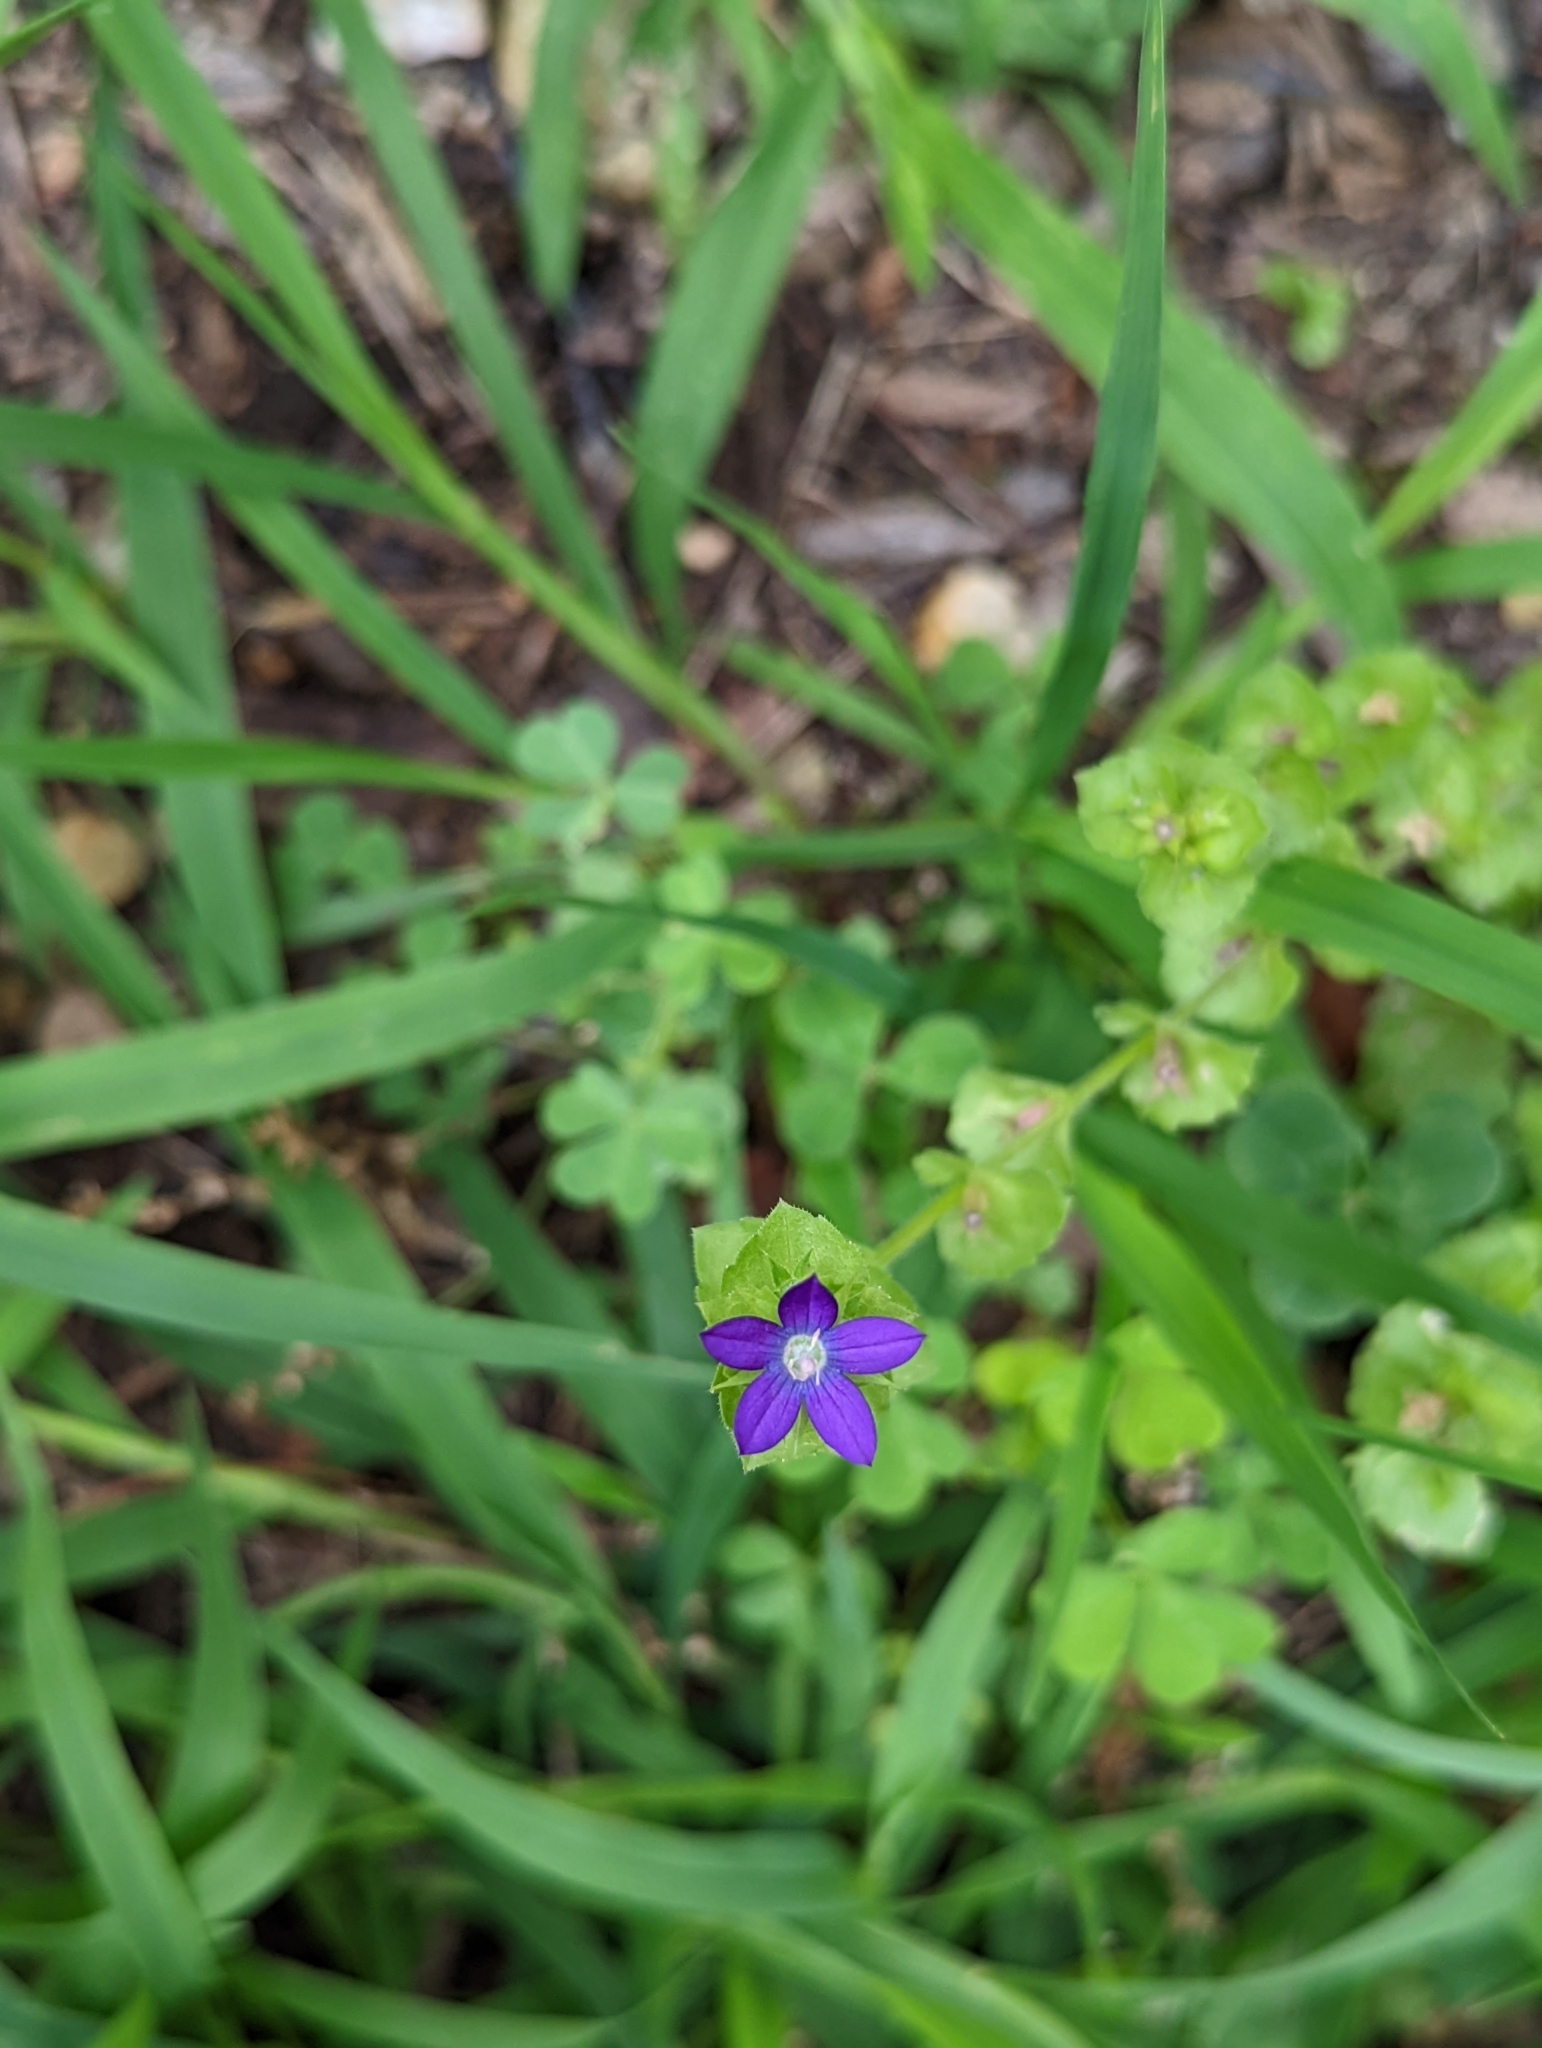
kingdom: Plantae
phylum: Tracheophyta
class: Magnoliopsida
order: Asterales
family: Campanulaceae
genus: Triodanis
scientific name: Triodanis perfoliata
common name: Clasping venus' looking-glass
